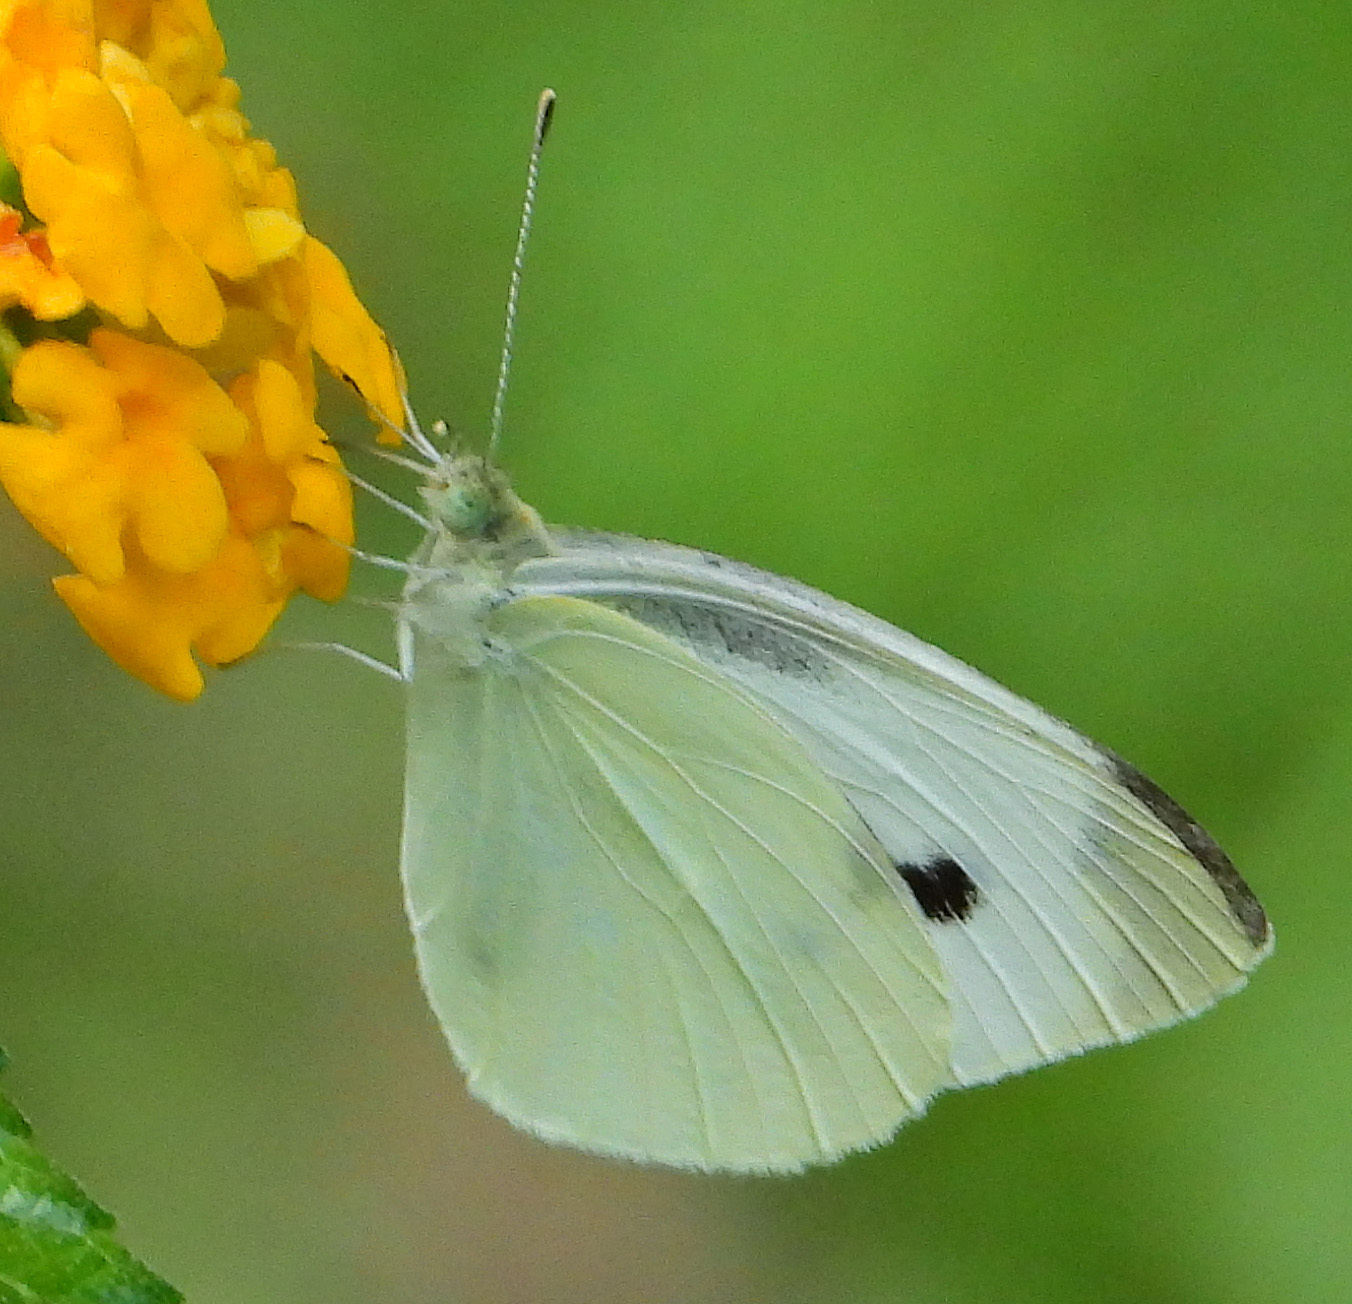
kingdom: Animalia
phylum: Arthropoda
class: Insecta
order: Lepidoptera
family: Pieridae
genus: Pieris
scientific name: Pieris rapae
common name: Small white
